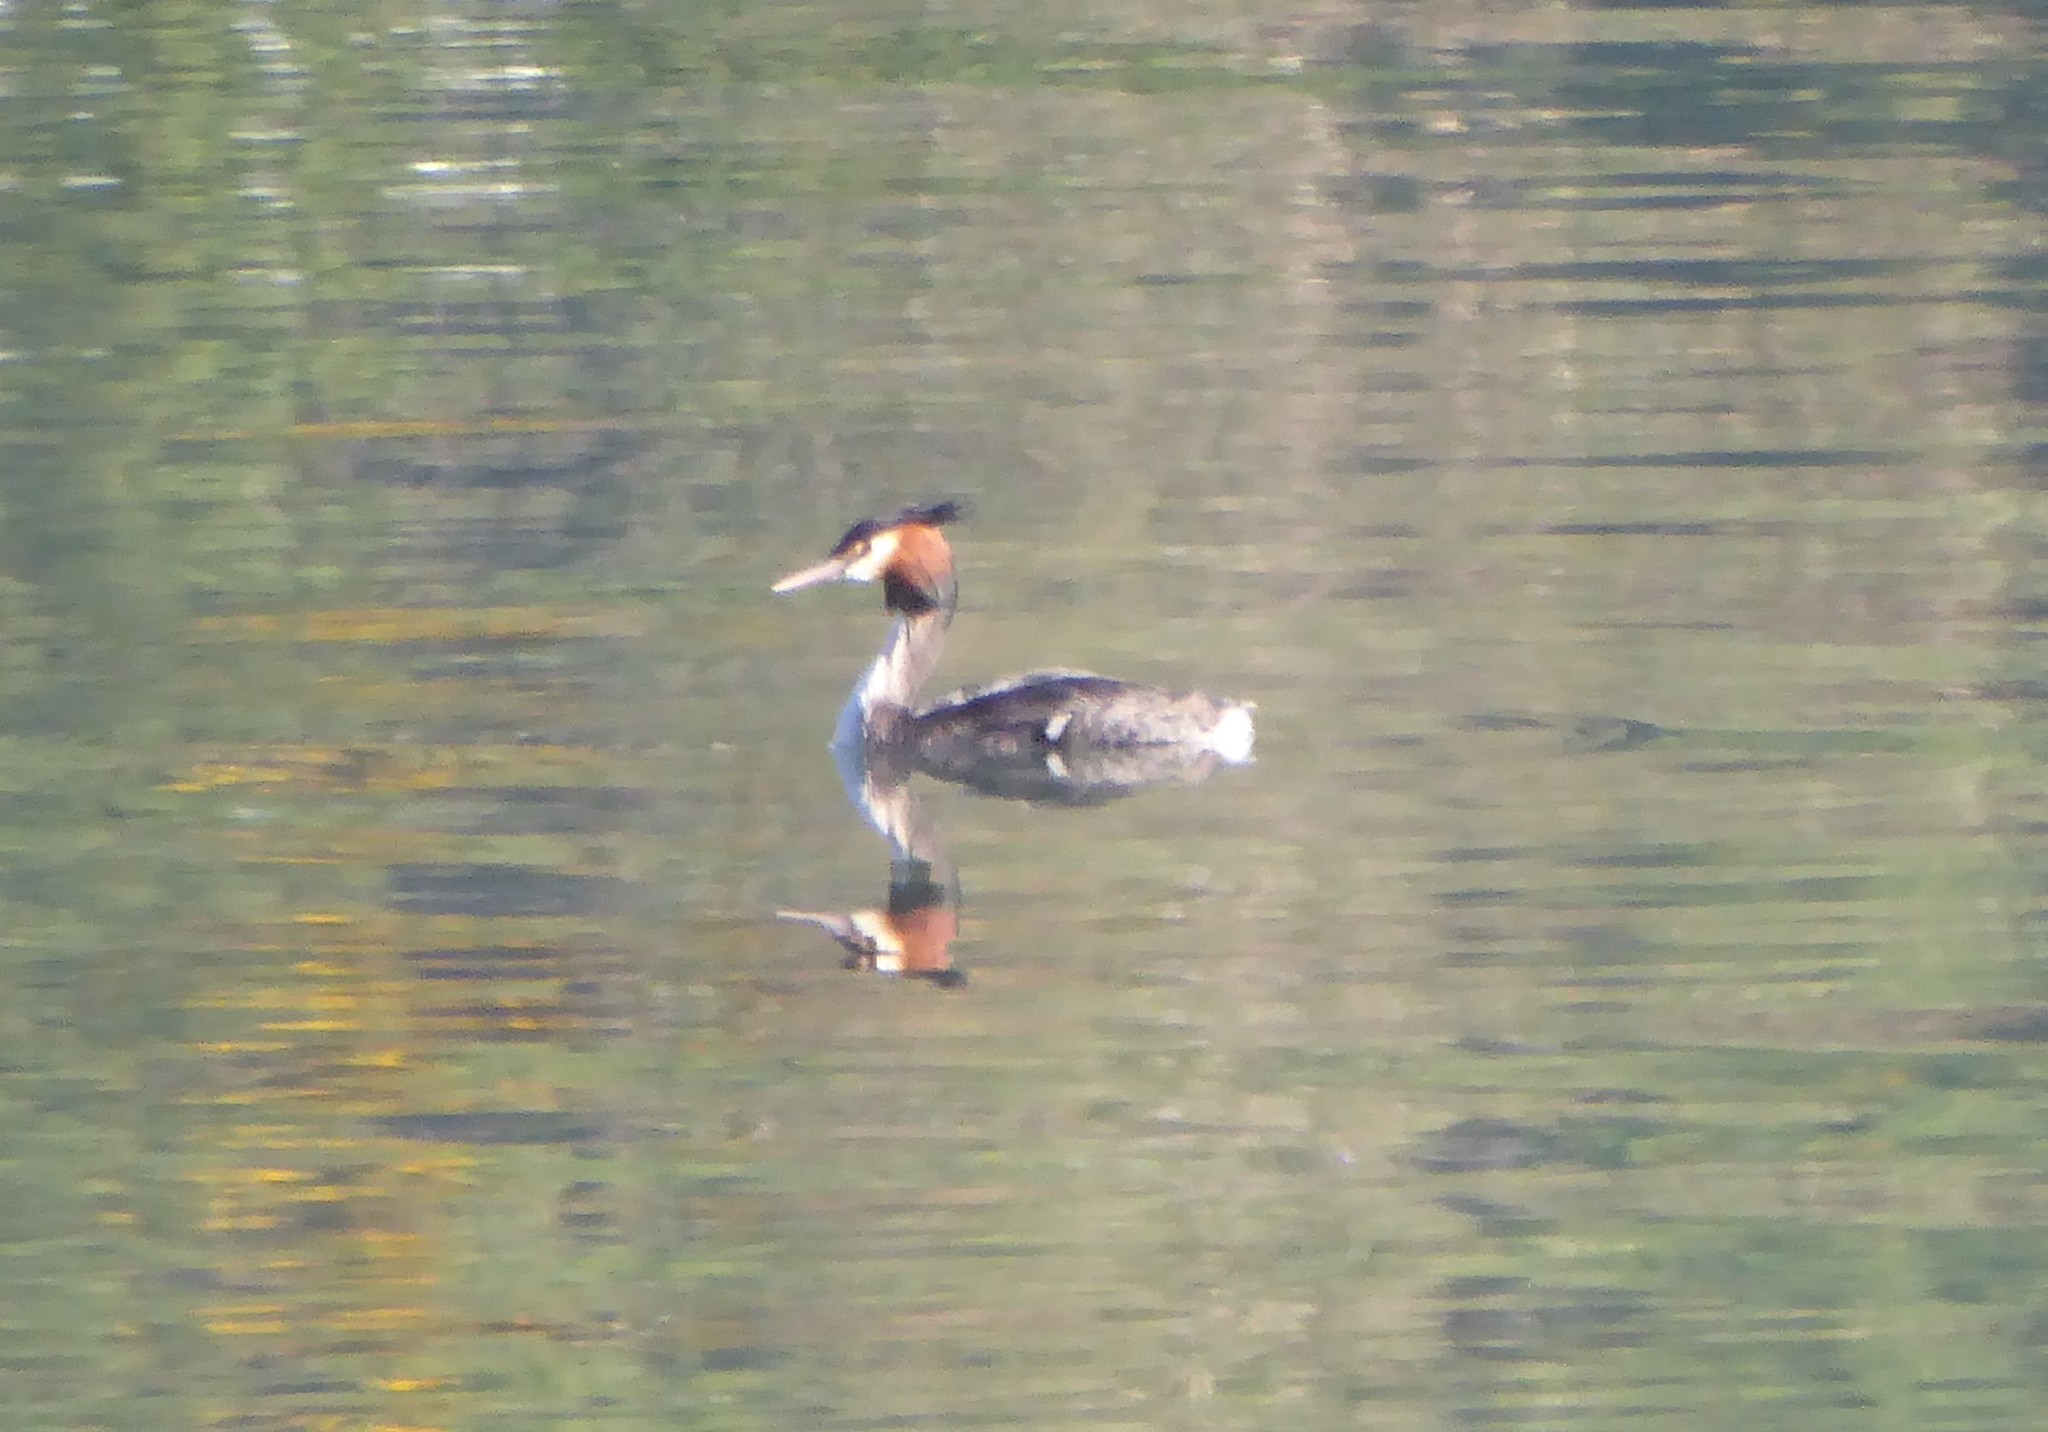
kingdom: Animalia
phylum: Chordata
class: Aves
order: Podicipediformes
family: Podicipedidae
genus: Podiceps
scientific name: Podiceps cristatus
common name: Great crested grebe
